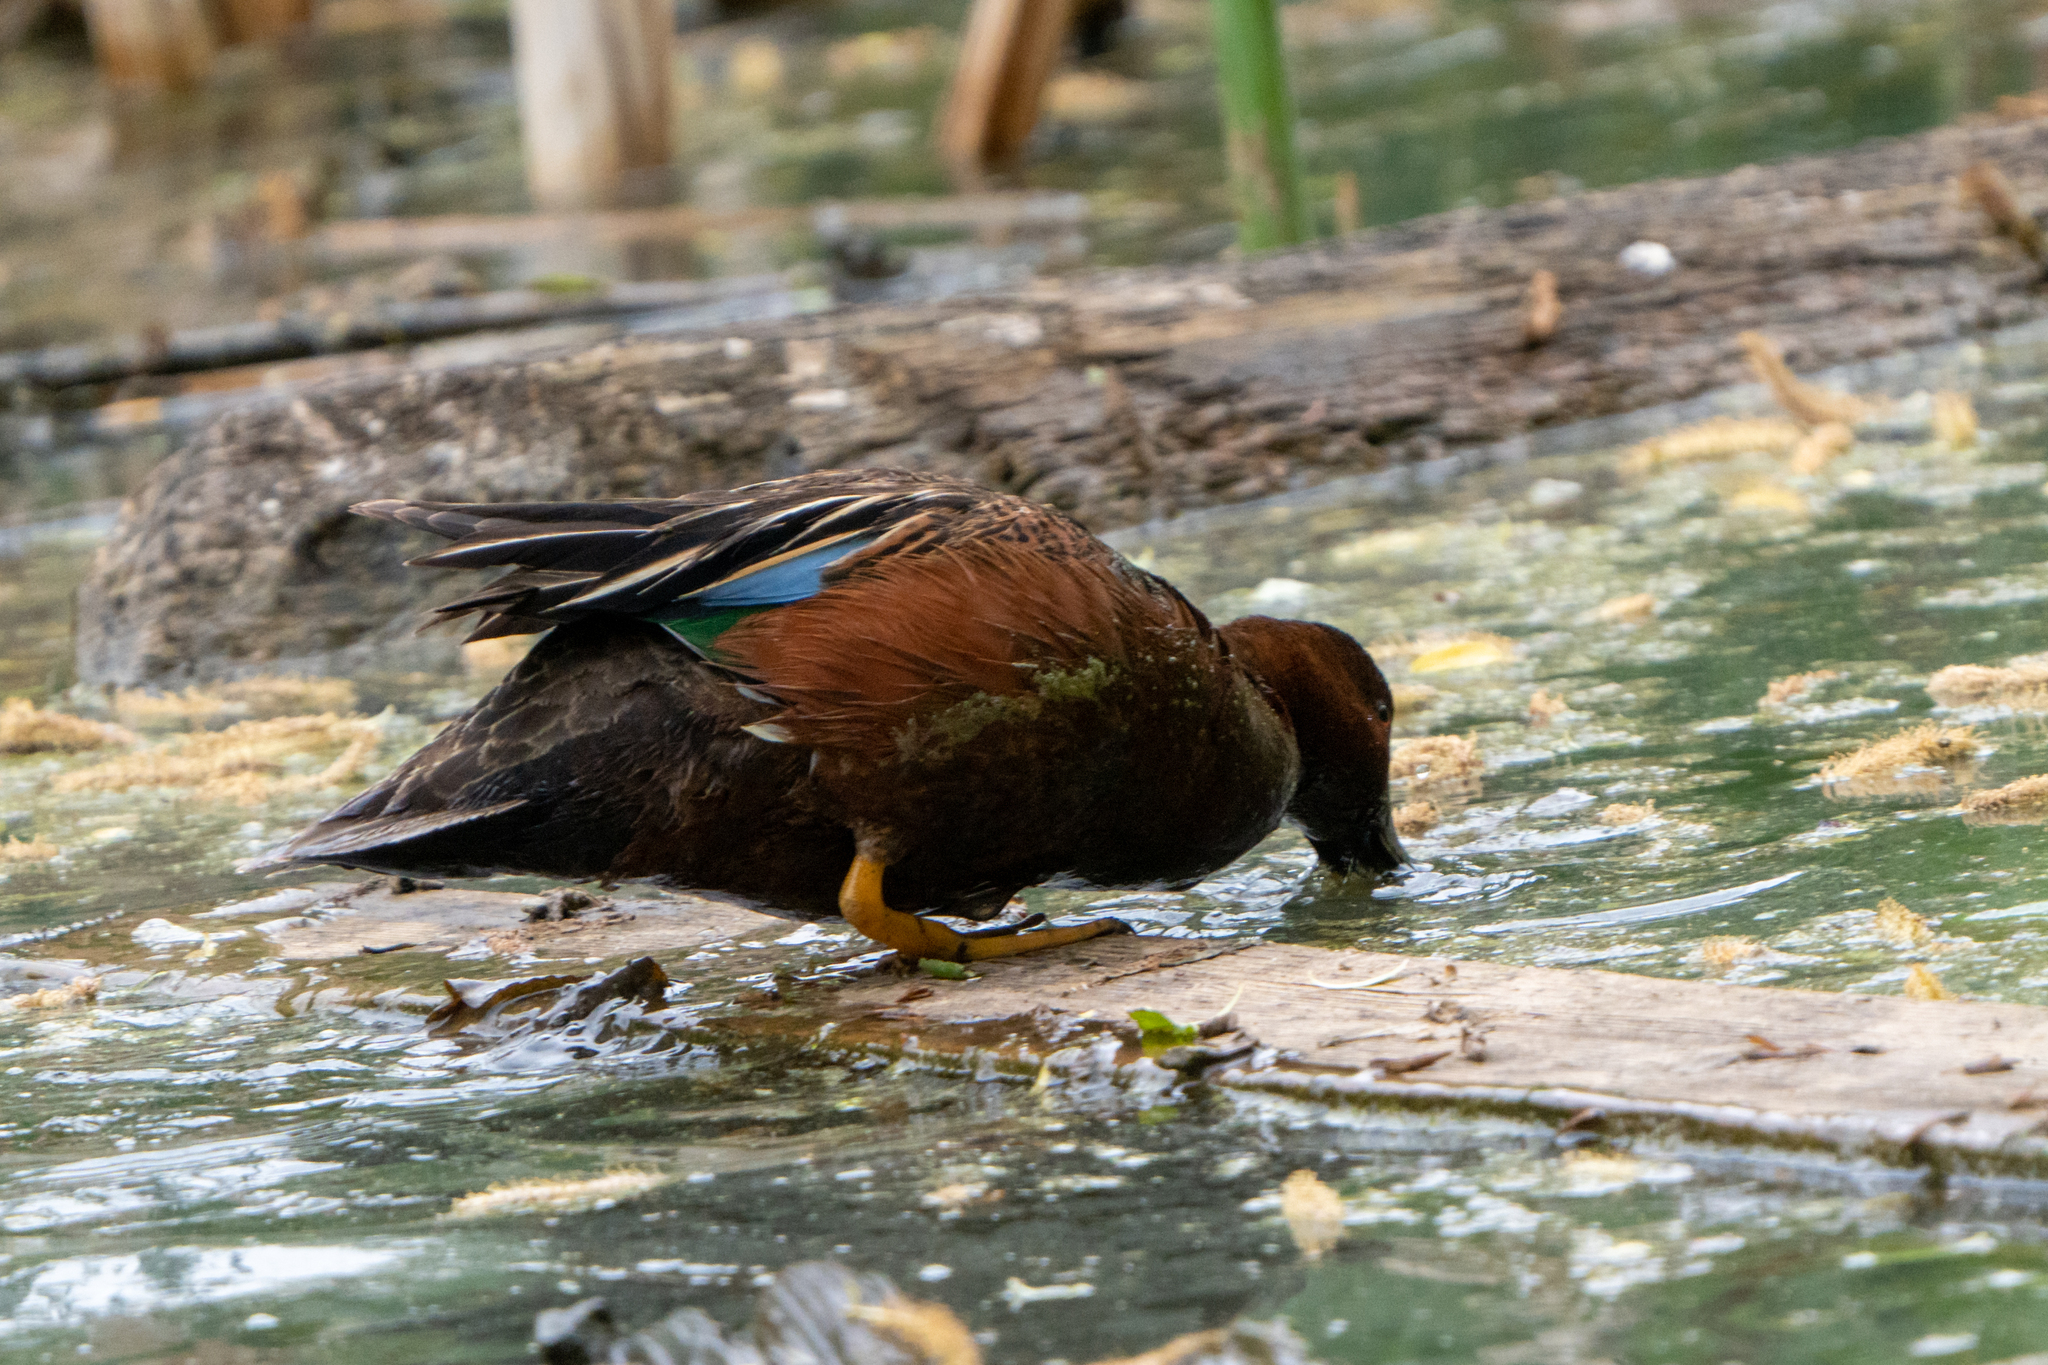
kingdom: Animalia
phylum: Chordata
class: Aves
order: Anseriformes
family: Anatidae
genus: Spatula
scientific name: Spatula cyanoptera
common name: Cinnamon teal
